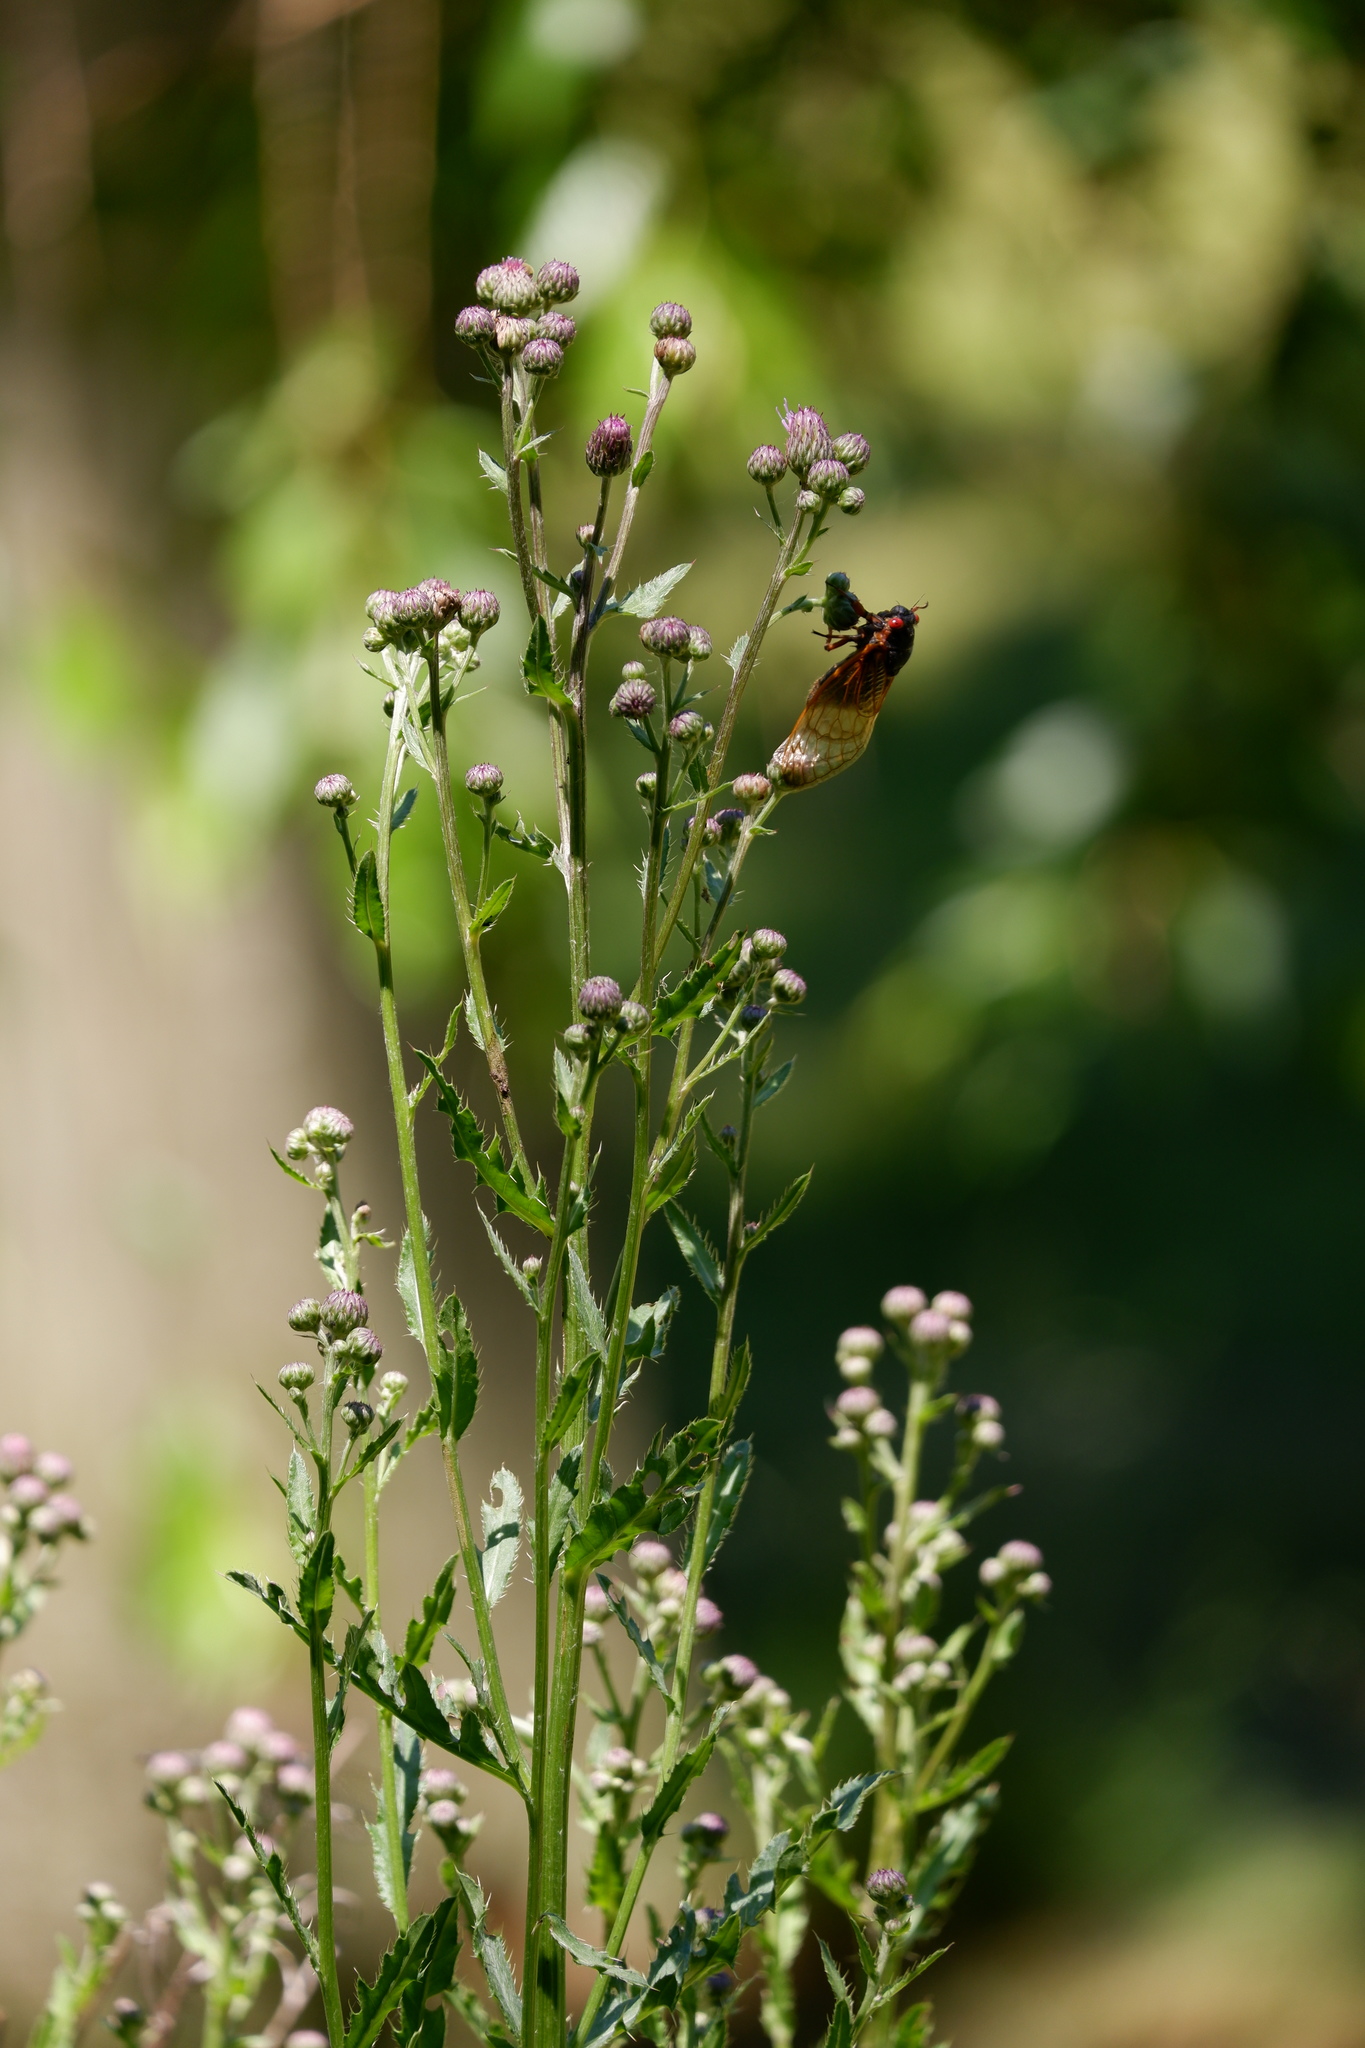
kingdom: Plantae
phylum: Tracheophyta
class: Magnoliopsida
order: Asterales
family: Asteraceae
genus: Cirsium
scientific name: Cirsium arvense
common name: Creeping thistle
